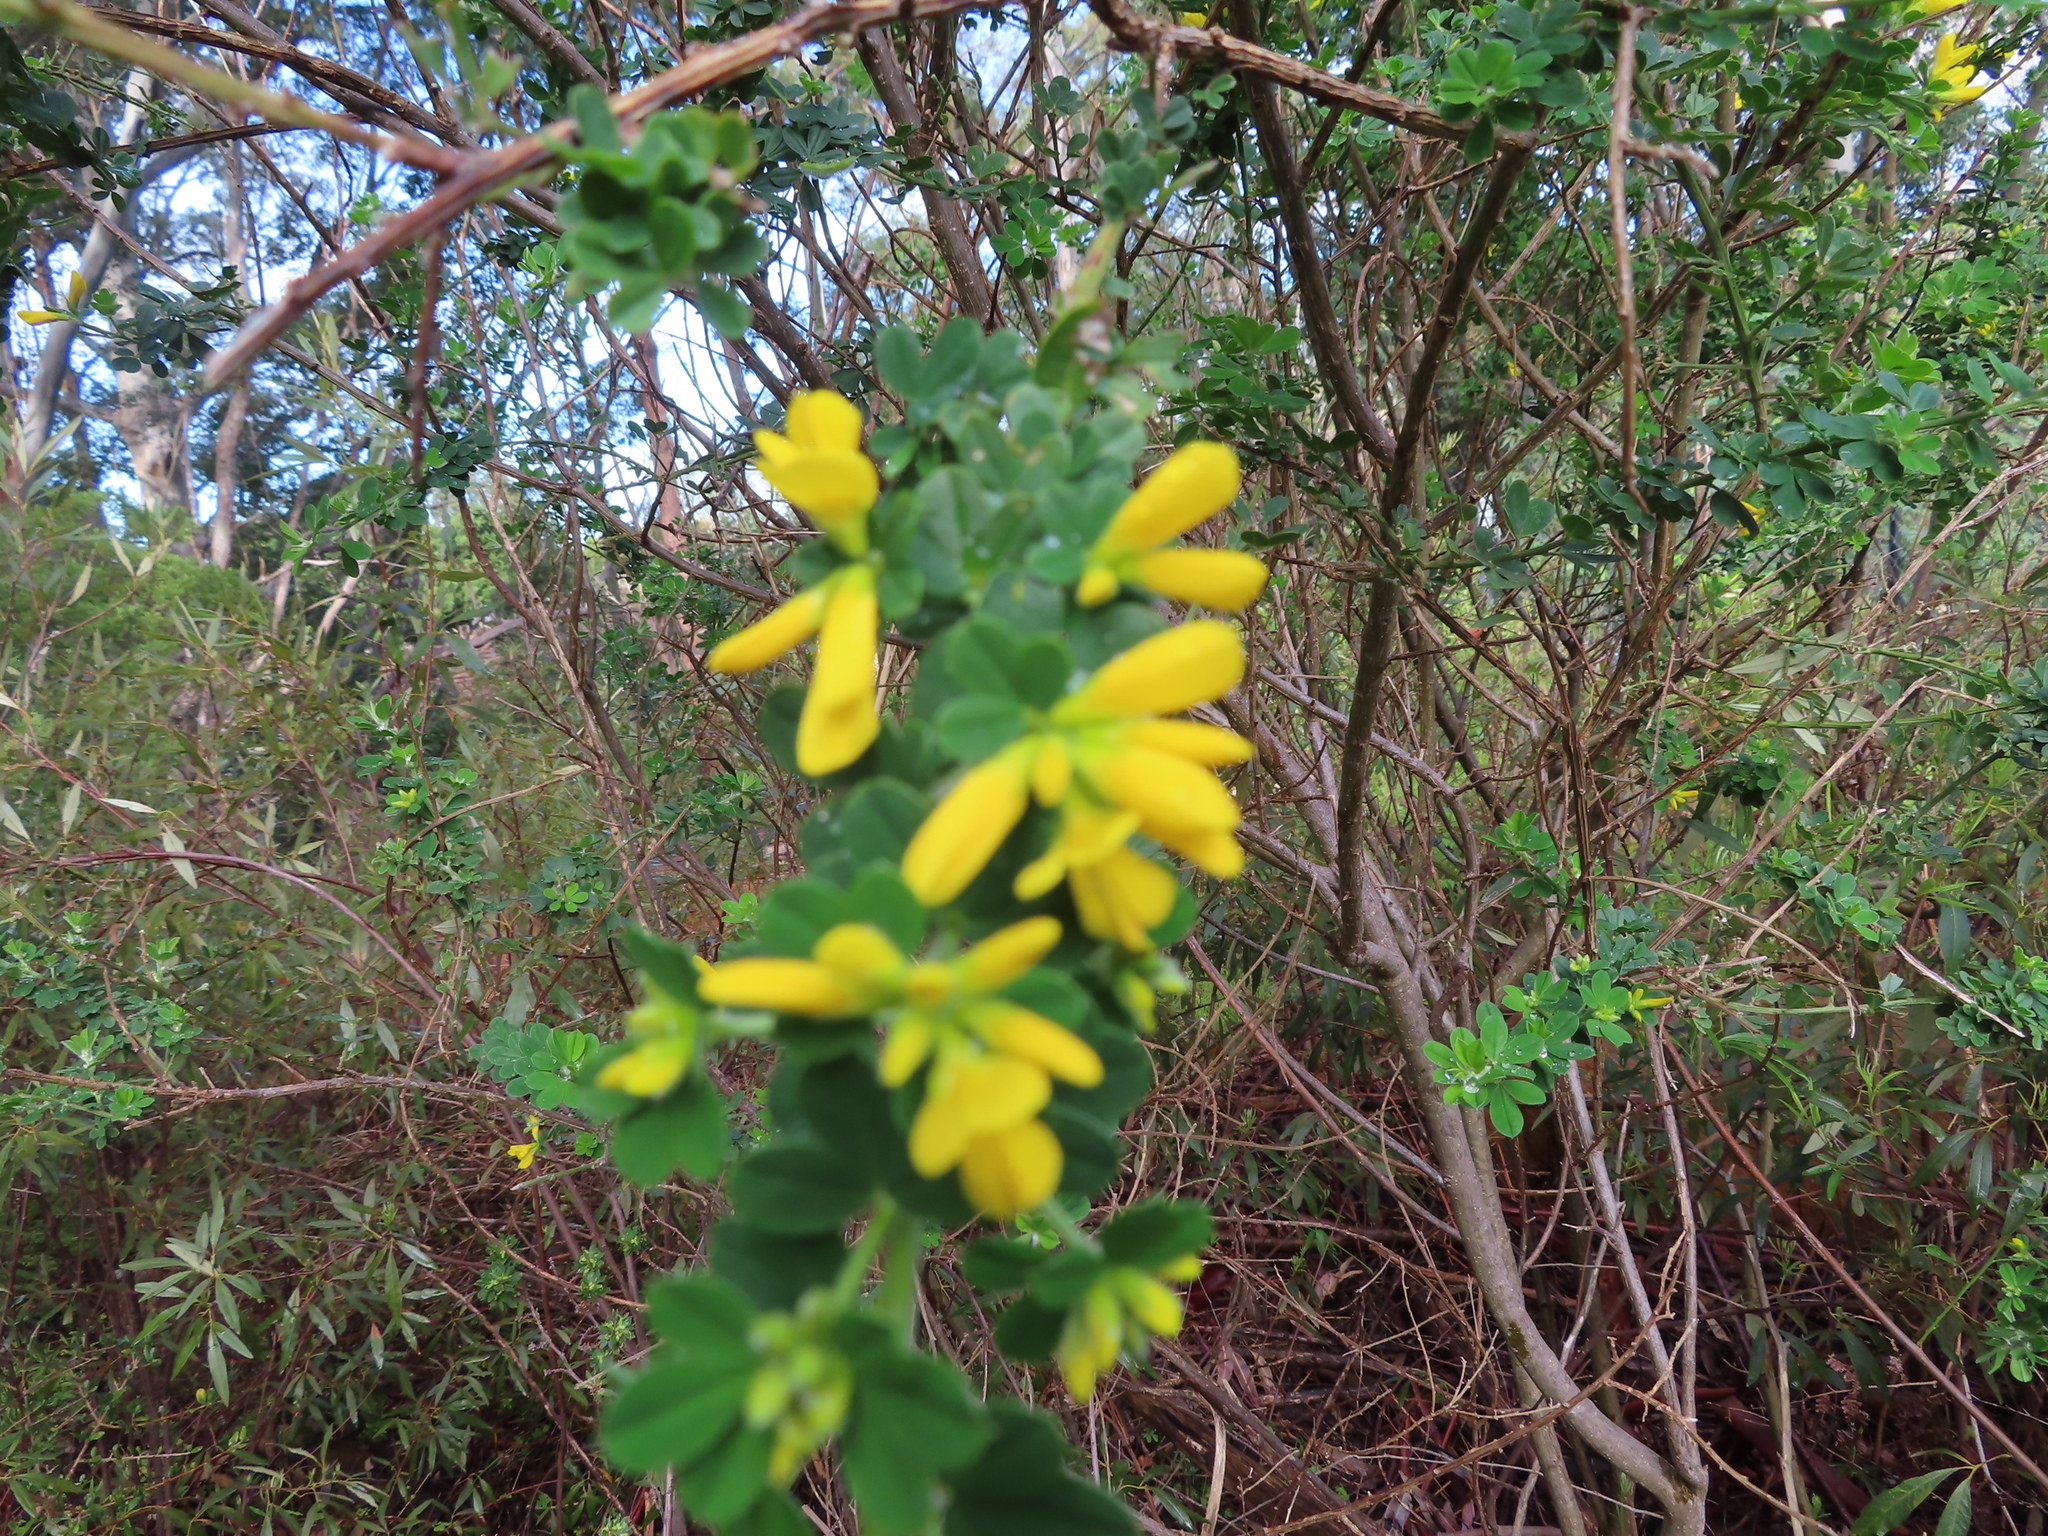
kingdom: Plantae
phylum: Tracheophyta
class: Magnoliopsida
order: Fabales
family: Fabaceae
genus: Genista
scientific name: Genista monspessulana
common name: Montpellier broom
